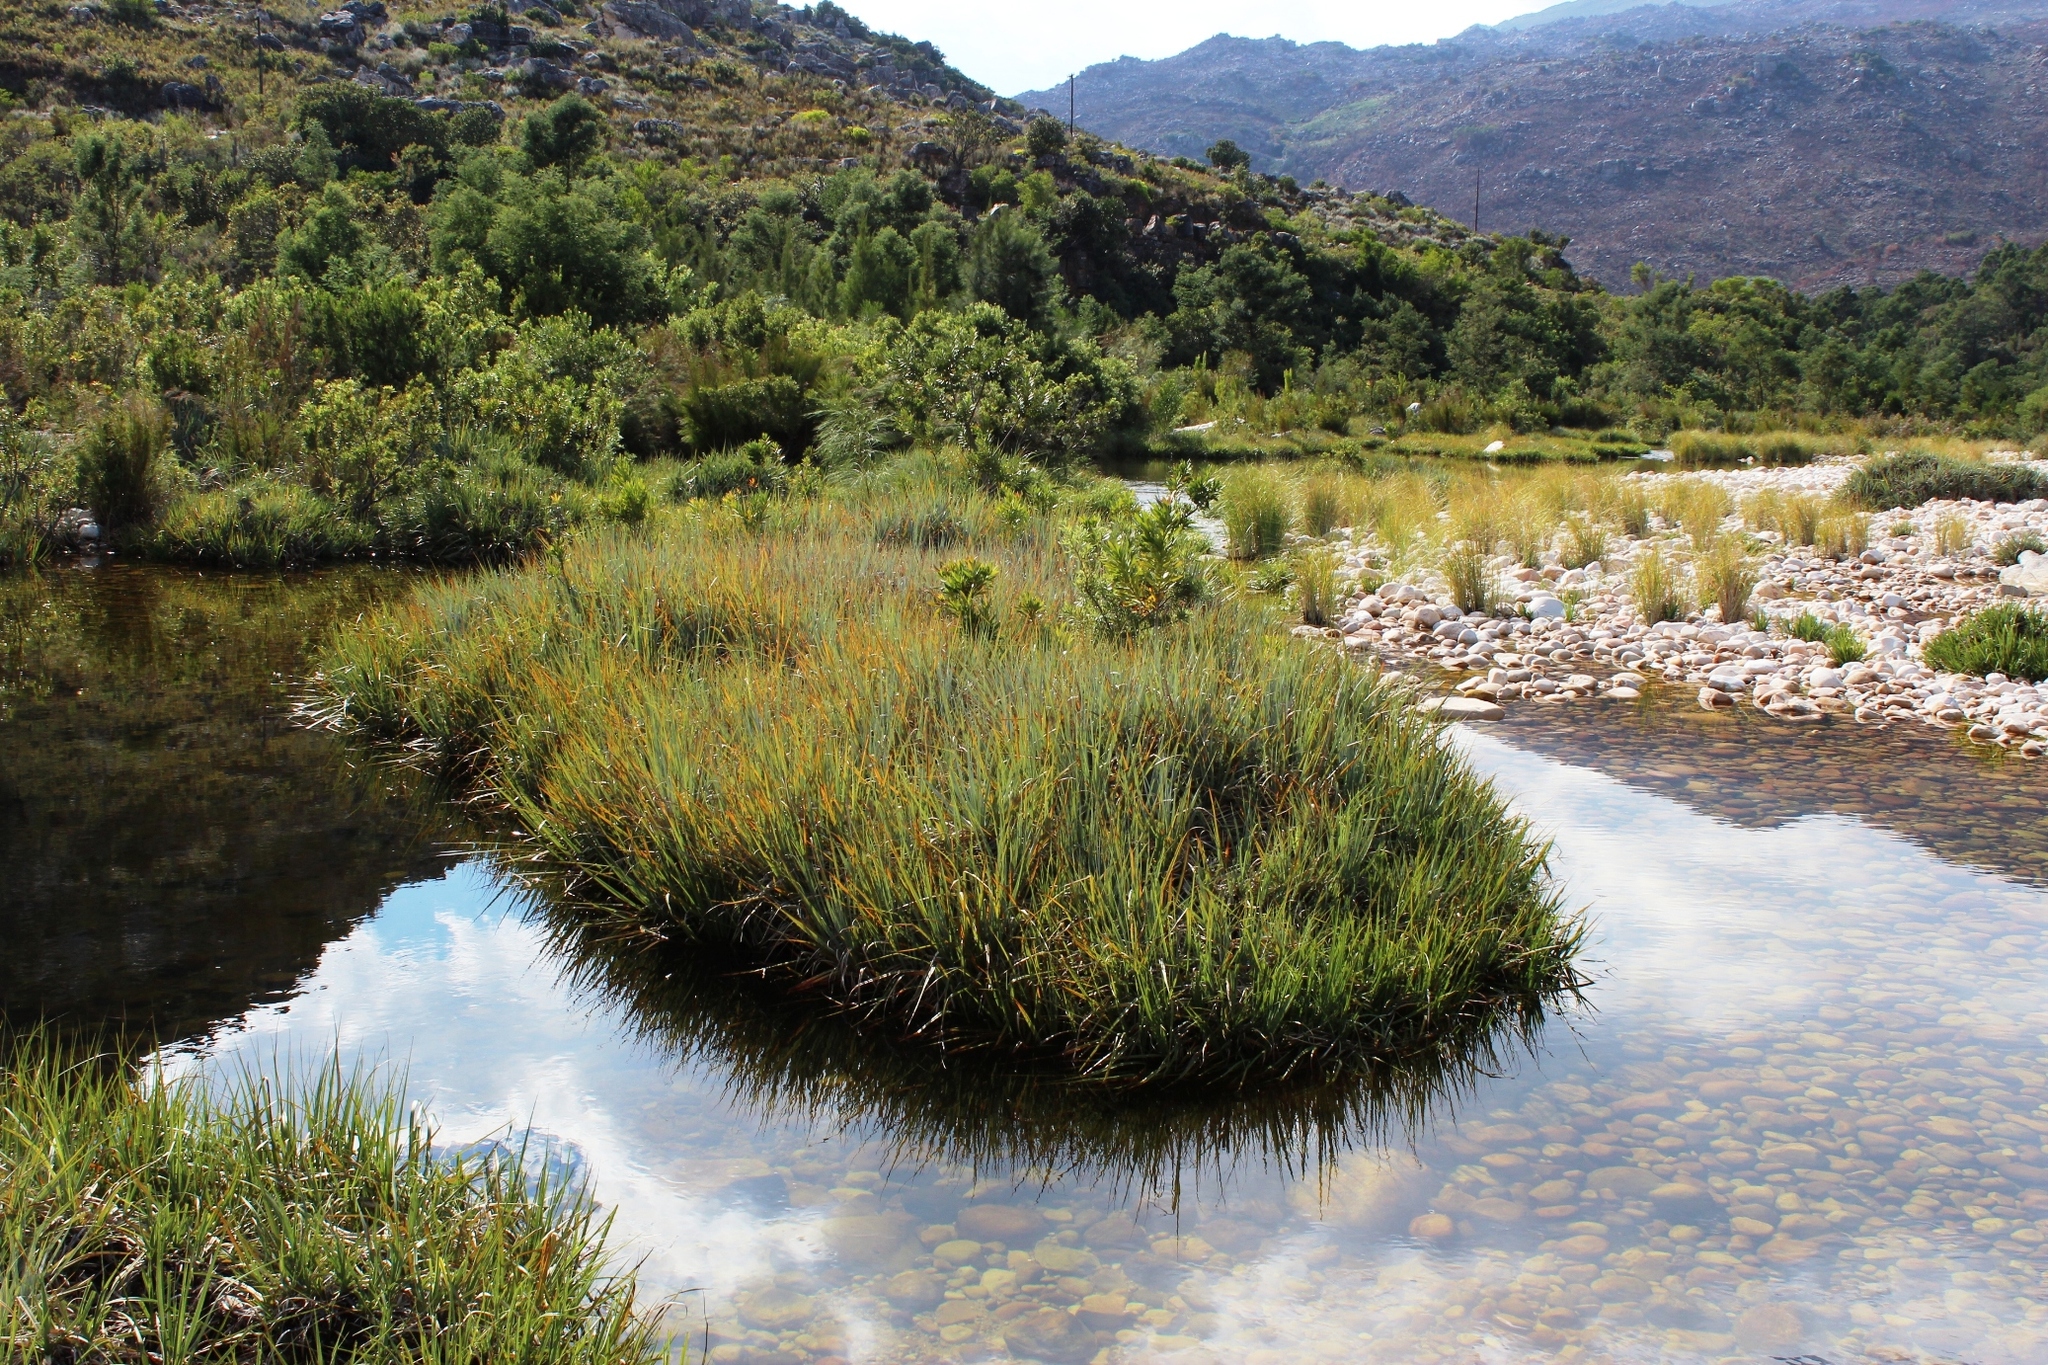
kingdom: Plantae
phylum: Tracheophyta
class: Liliopsida
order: Poales
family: Thurniaceae
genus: Prionium
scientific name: Prionium serratum
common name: Palmiet
